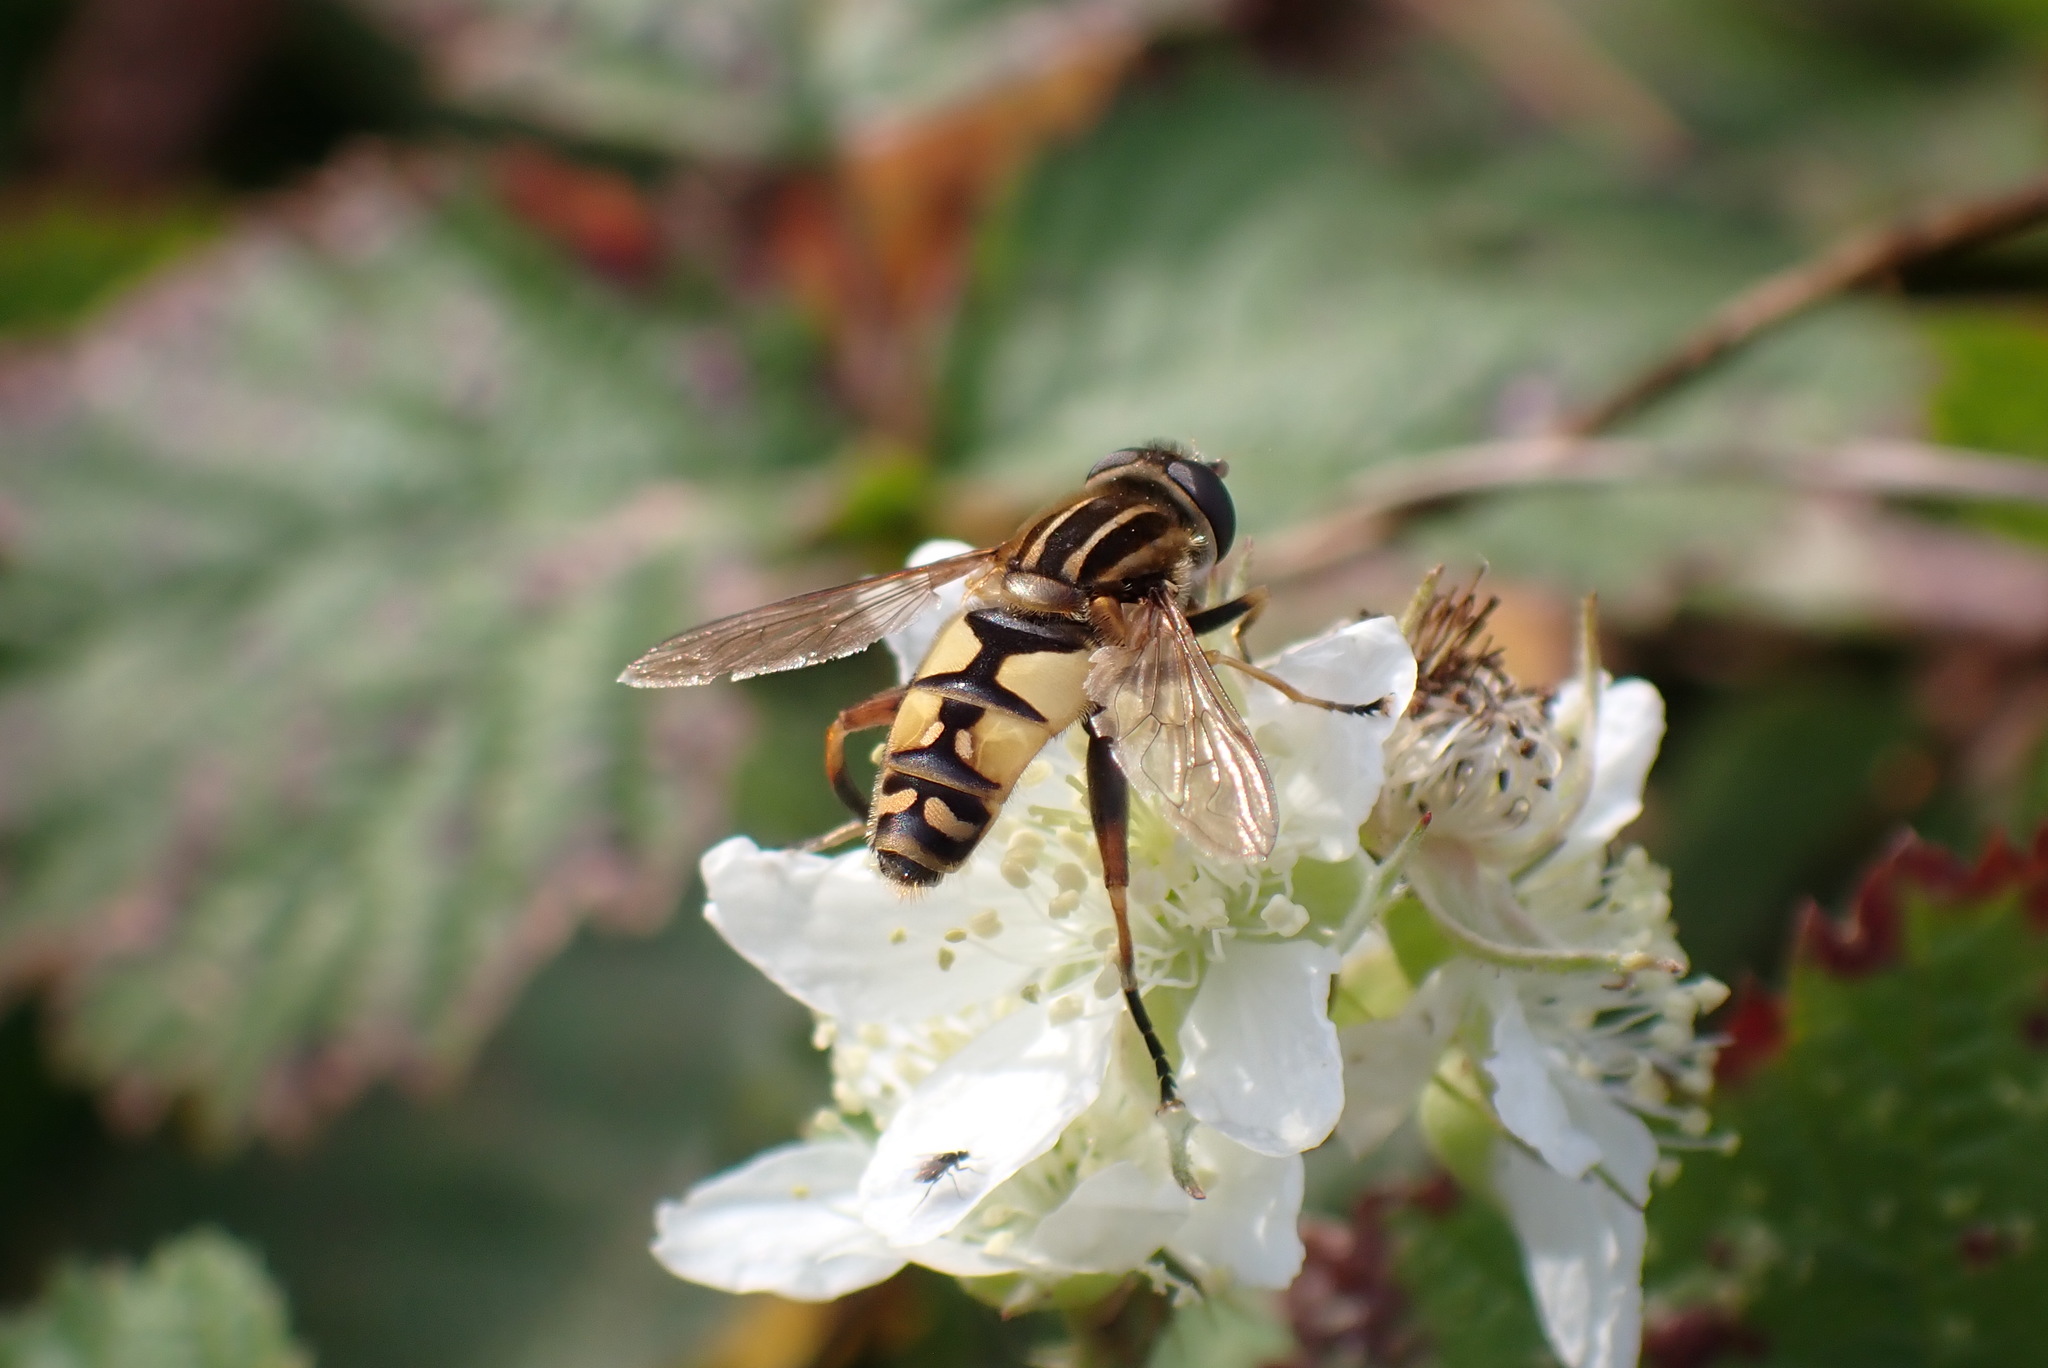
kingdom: Animalia
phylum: Arthropoda
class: Insecta
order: Diptera
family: Syrphidae
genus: Helophilus
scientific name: Helophilus pendulus
